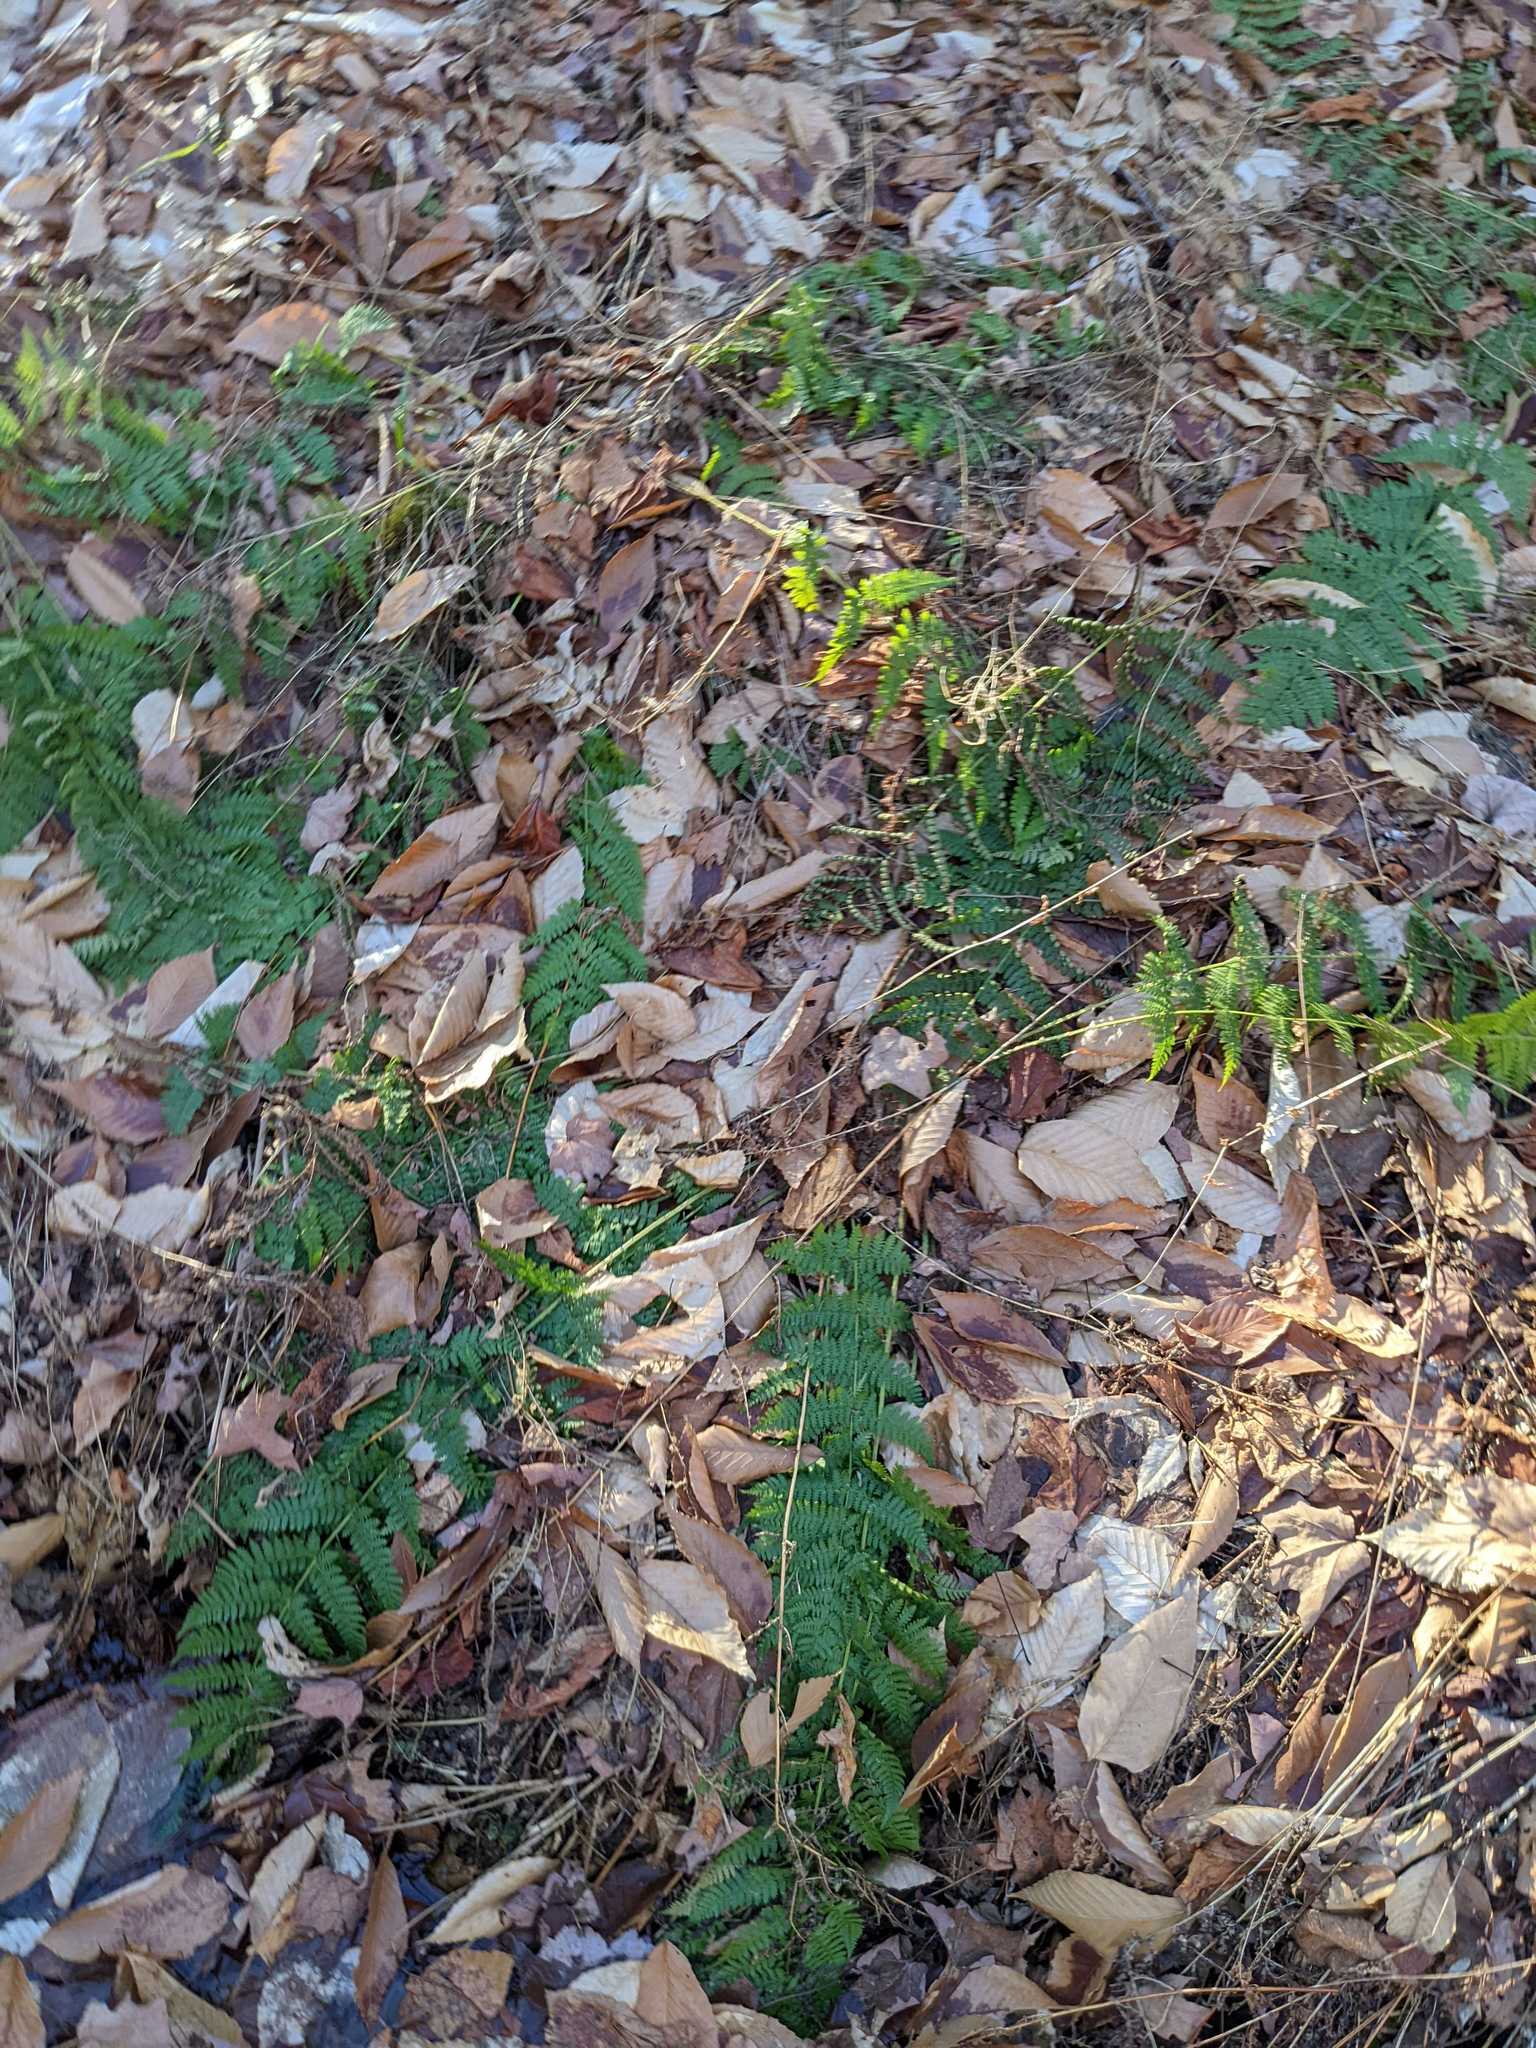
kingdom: Plantae
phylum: Tracheophyta
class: Polypodiopsida
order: Polypodiales
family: Dryopteridaceae
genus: Dryopteris
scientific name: Dryopteris intermedia
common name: Evergreen wood fern
